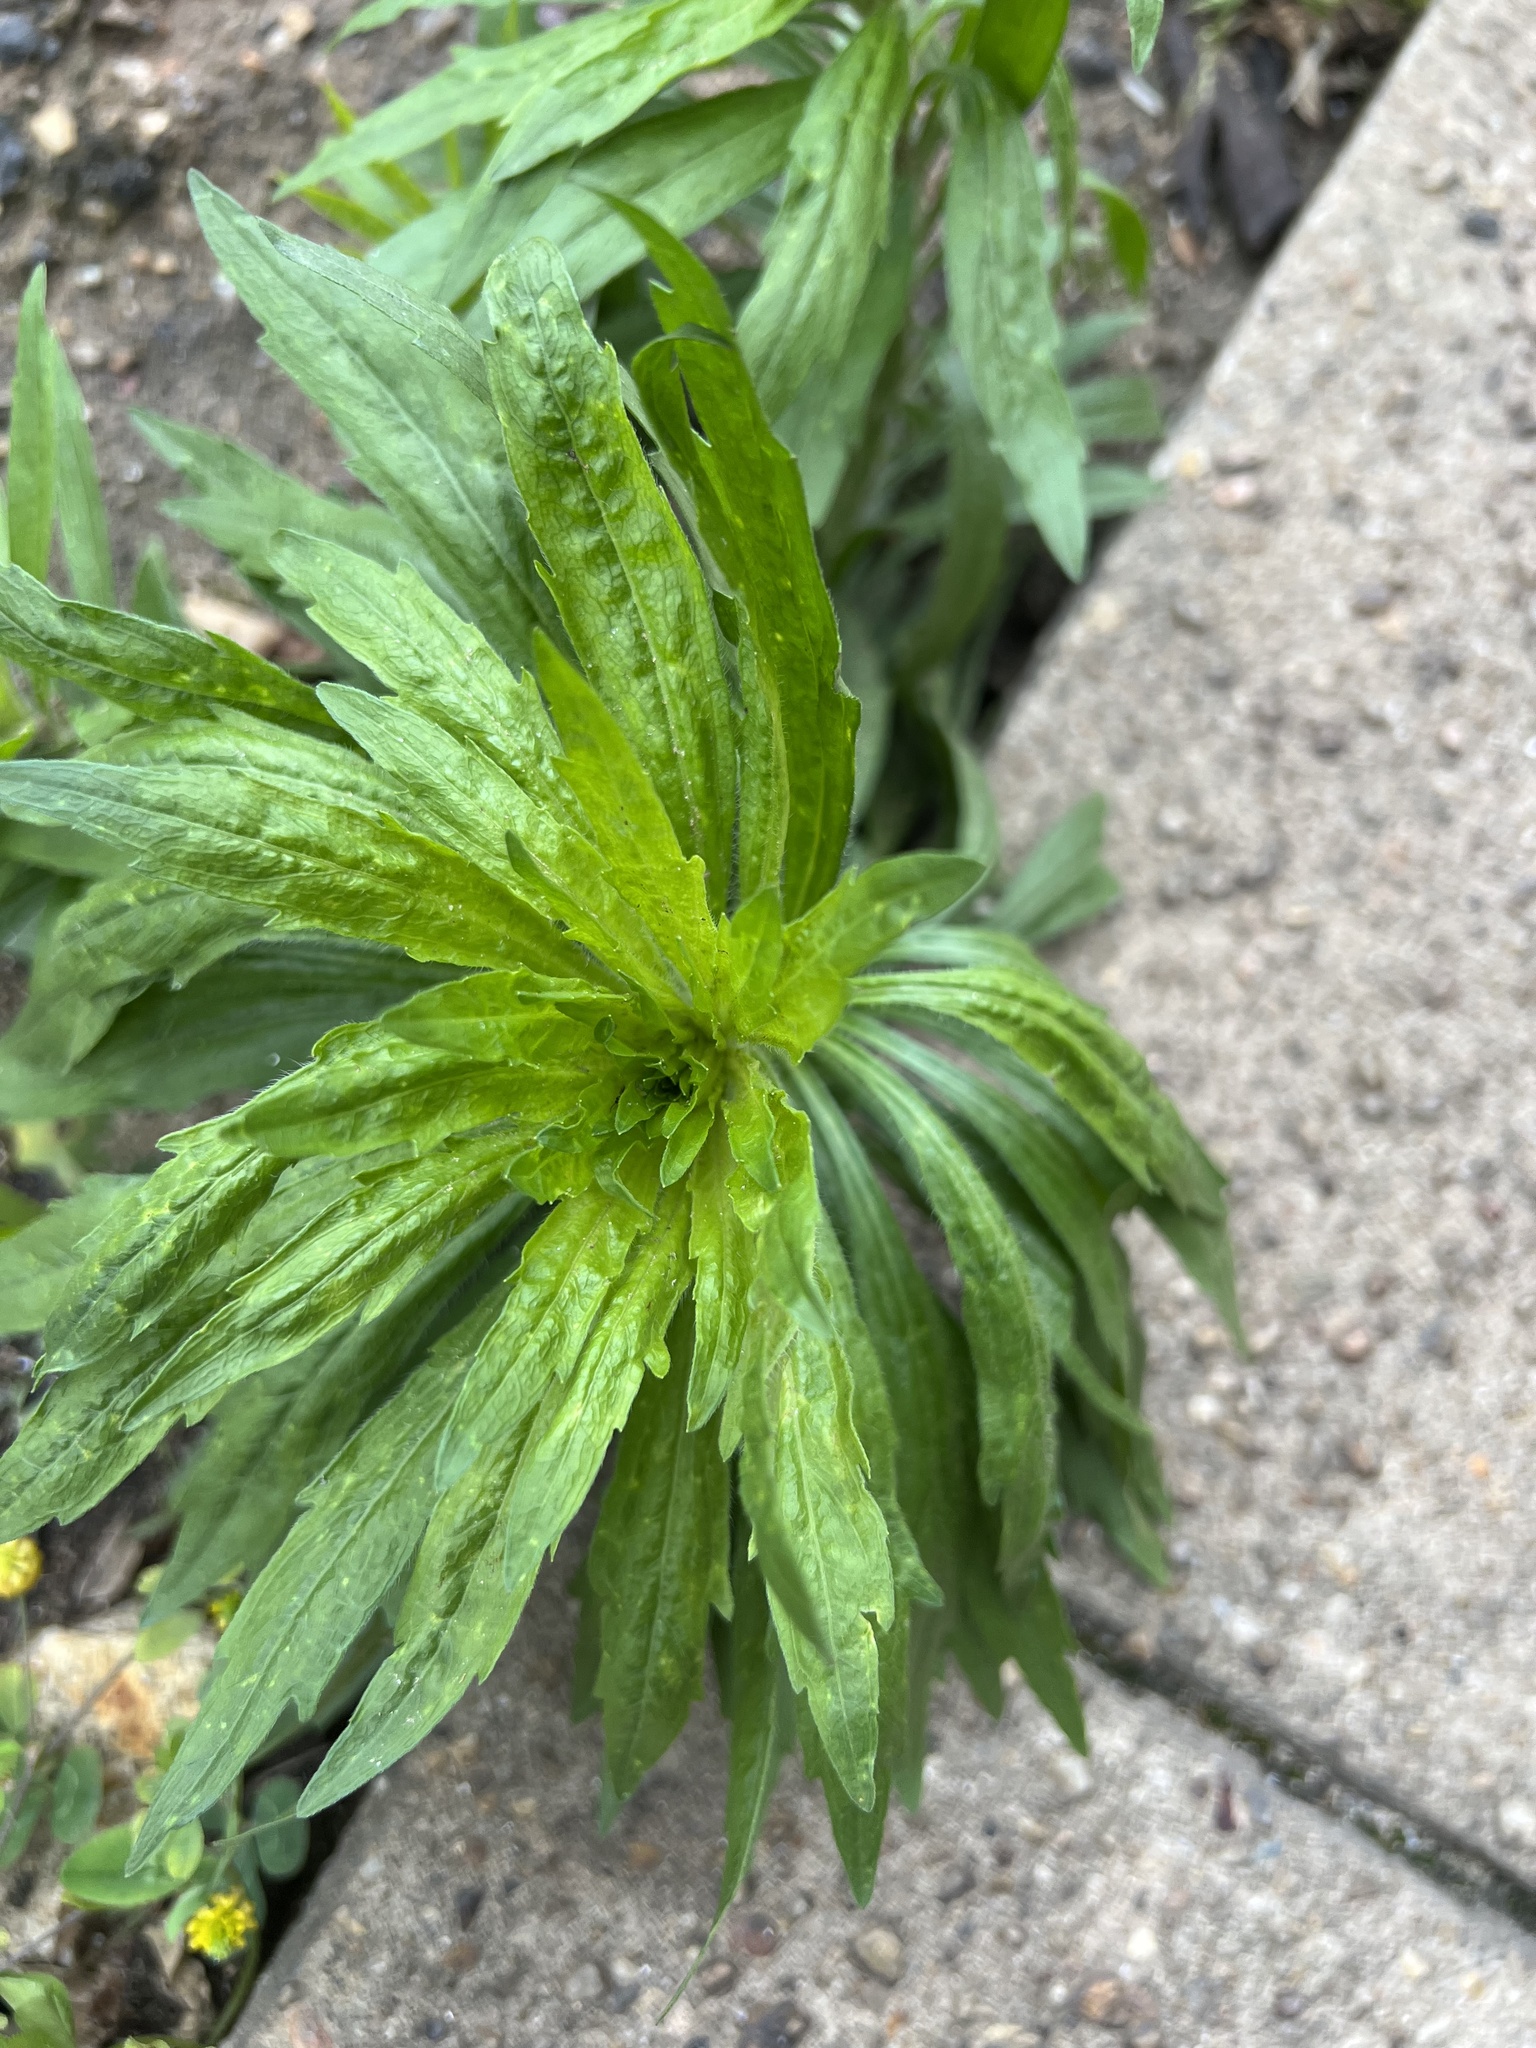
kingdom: Plantae
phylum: Tracheophyta
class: Magnoliopsida
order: Asterales
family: Asteraceae
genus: Erigeron
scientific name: Erigeron canadensis
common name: Canadian fleabane
